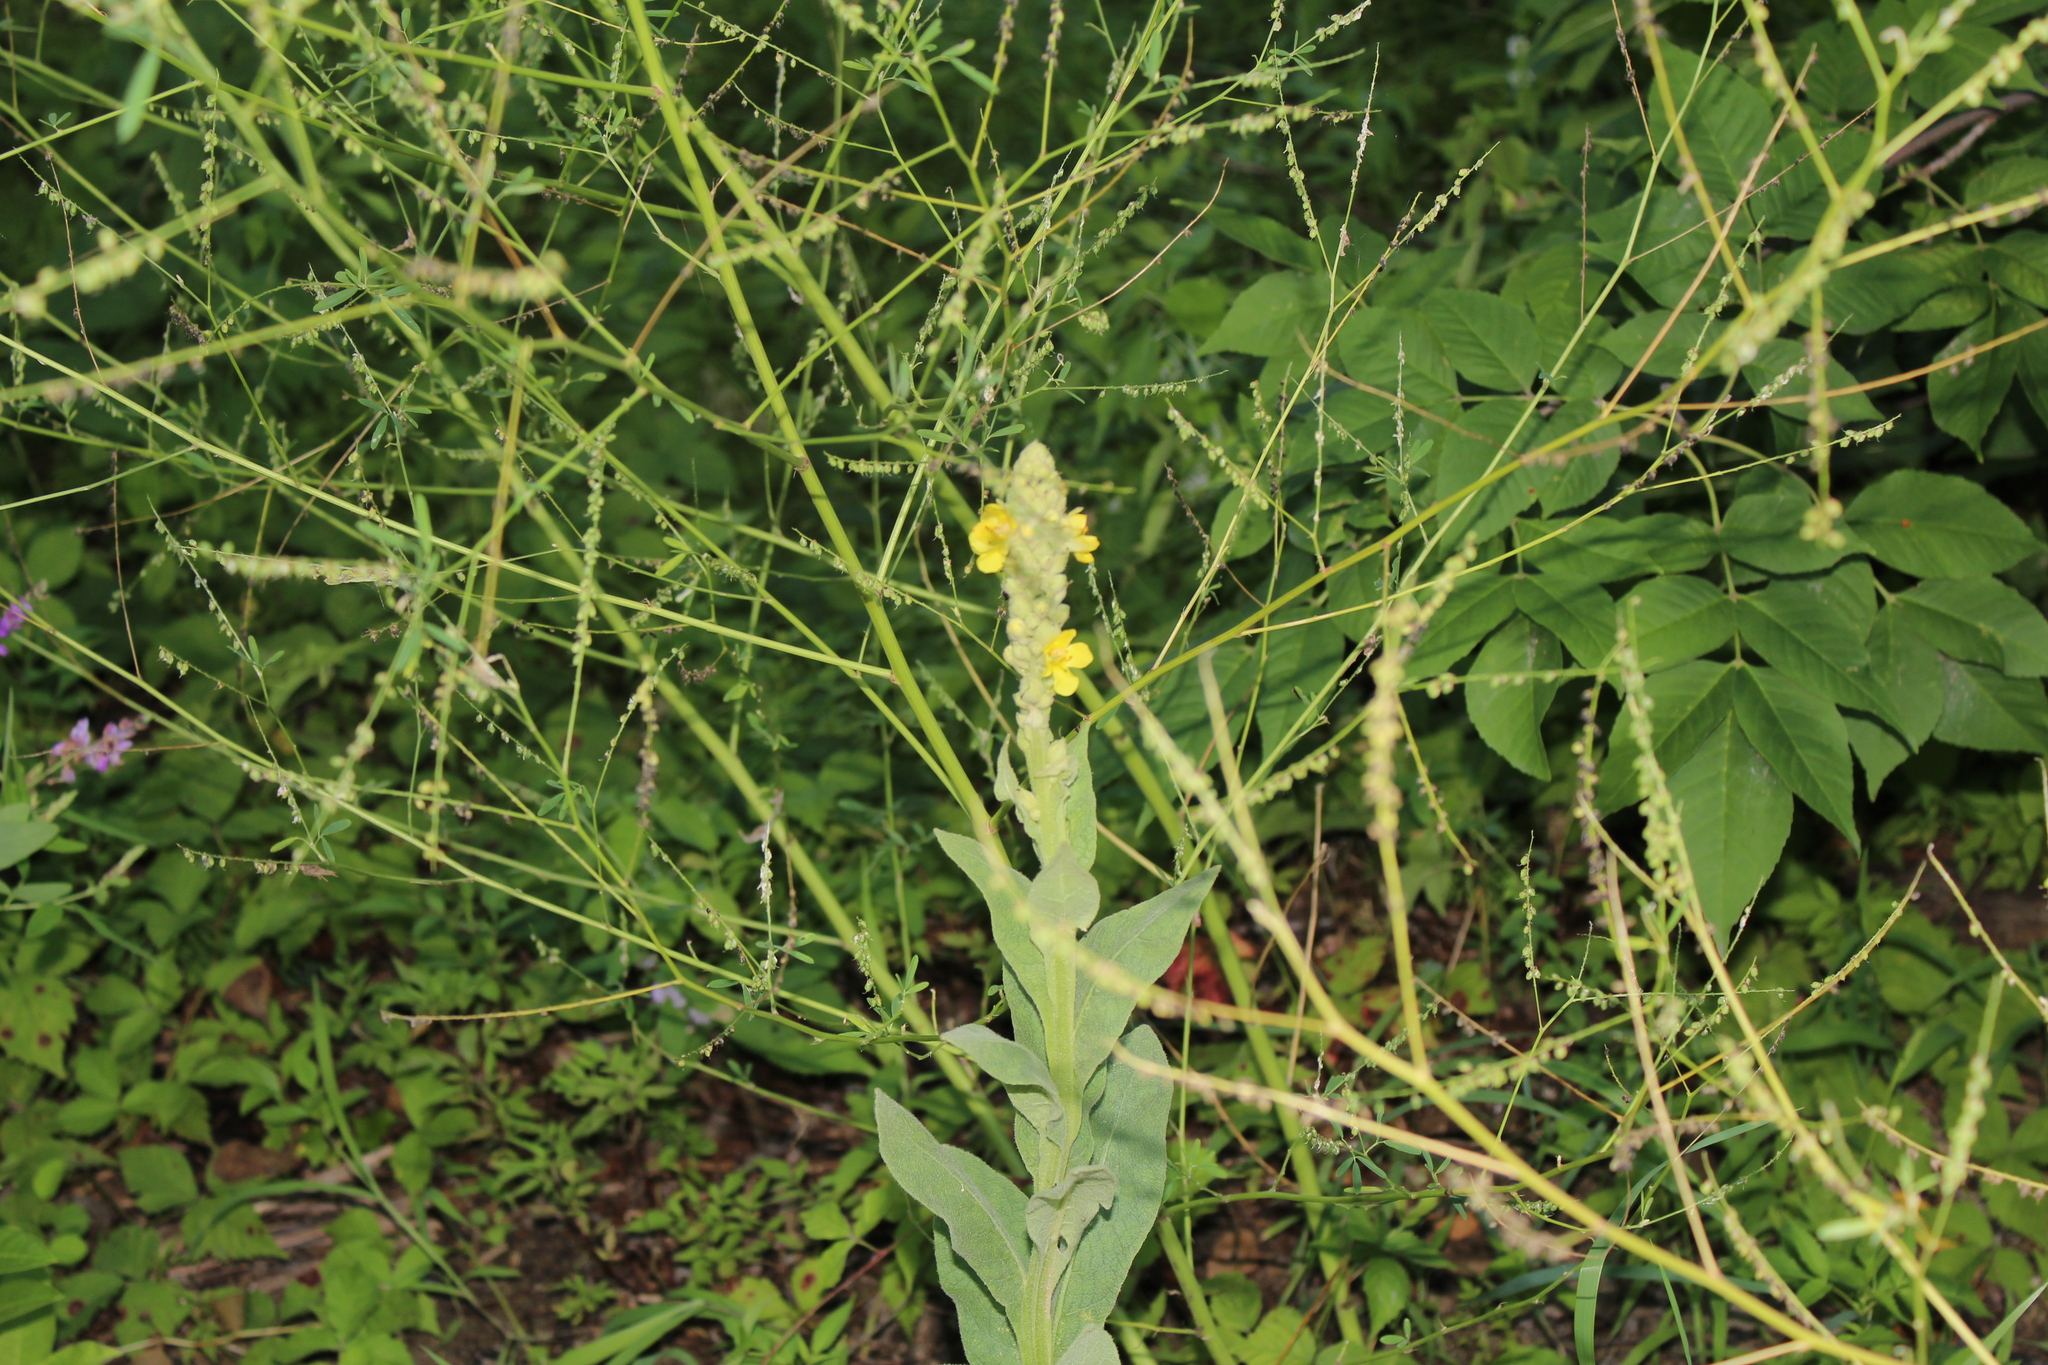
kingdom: Plantae
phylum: Tracheophyta
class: Magnoliopsida
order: Lamiales
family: Scrophulariaceae
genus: Verbascum
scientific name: Verbascum thapsus
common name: Common mullein
